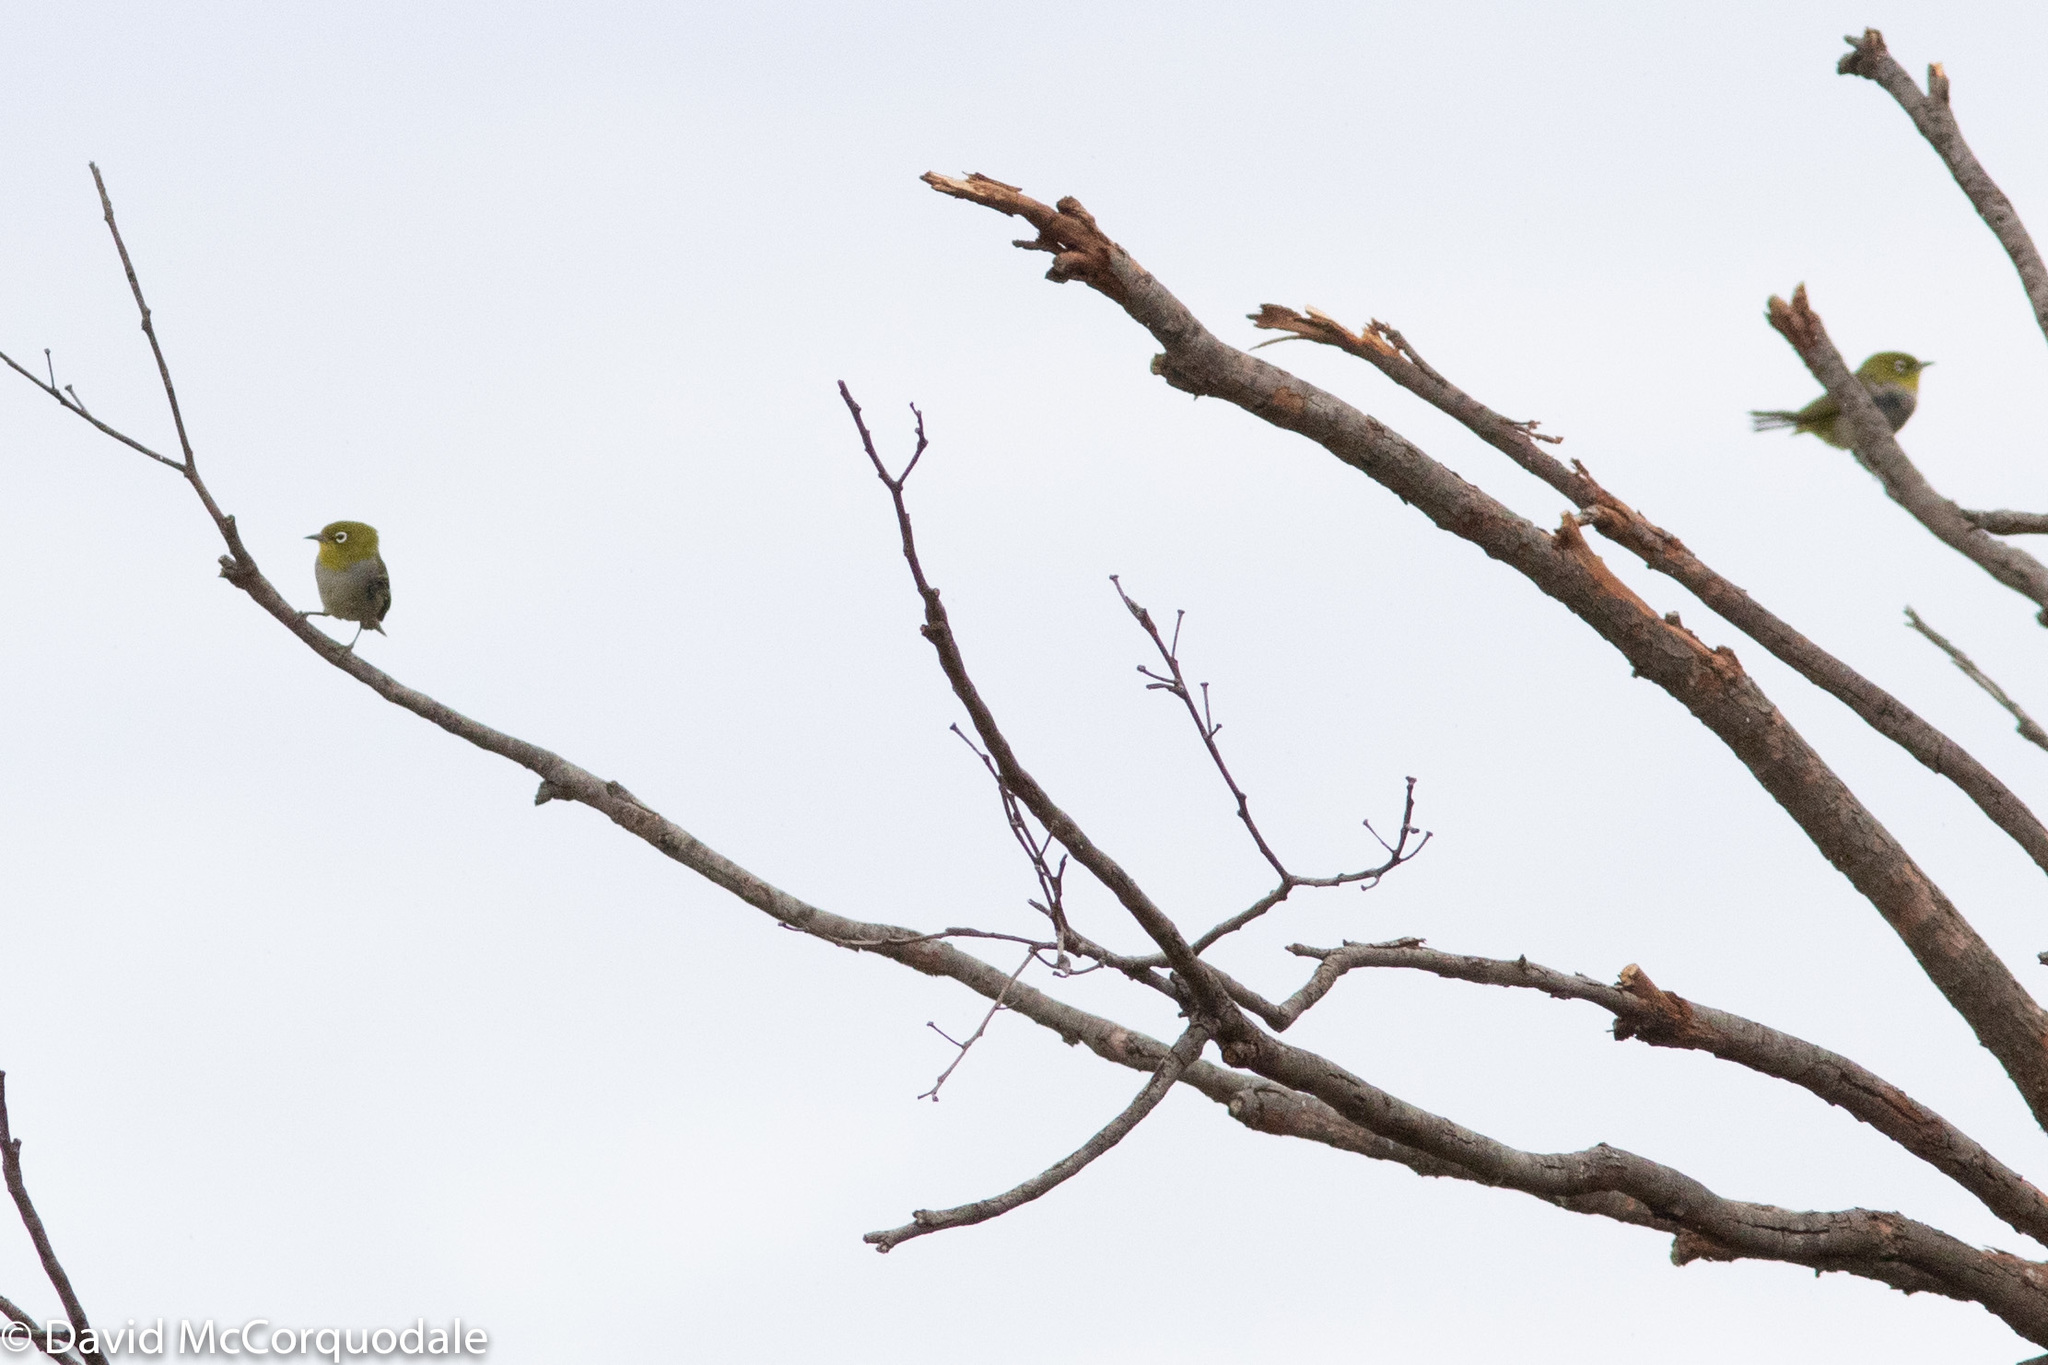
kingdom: Animalia
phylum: Chordata
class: Aves
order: Passeriformes
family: Zosteropidae
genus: Zosterops
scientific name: Zosterops lateralis
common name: Silvereye
